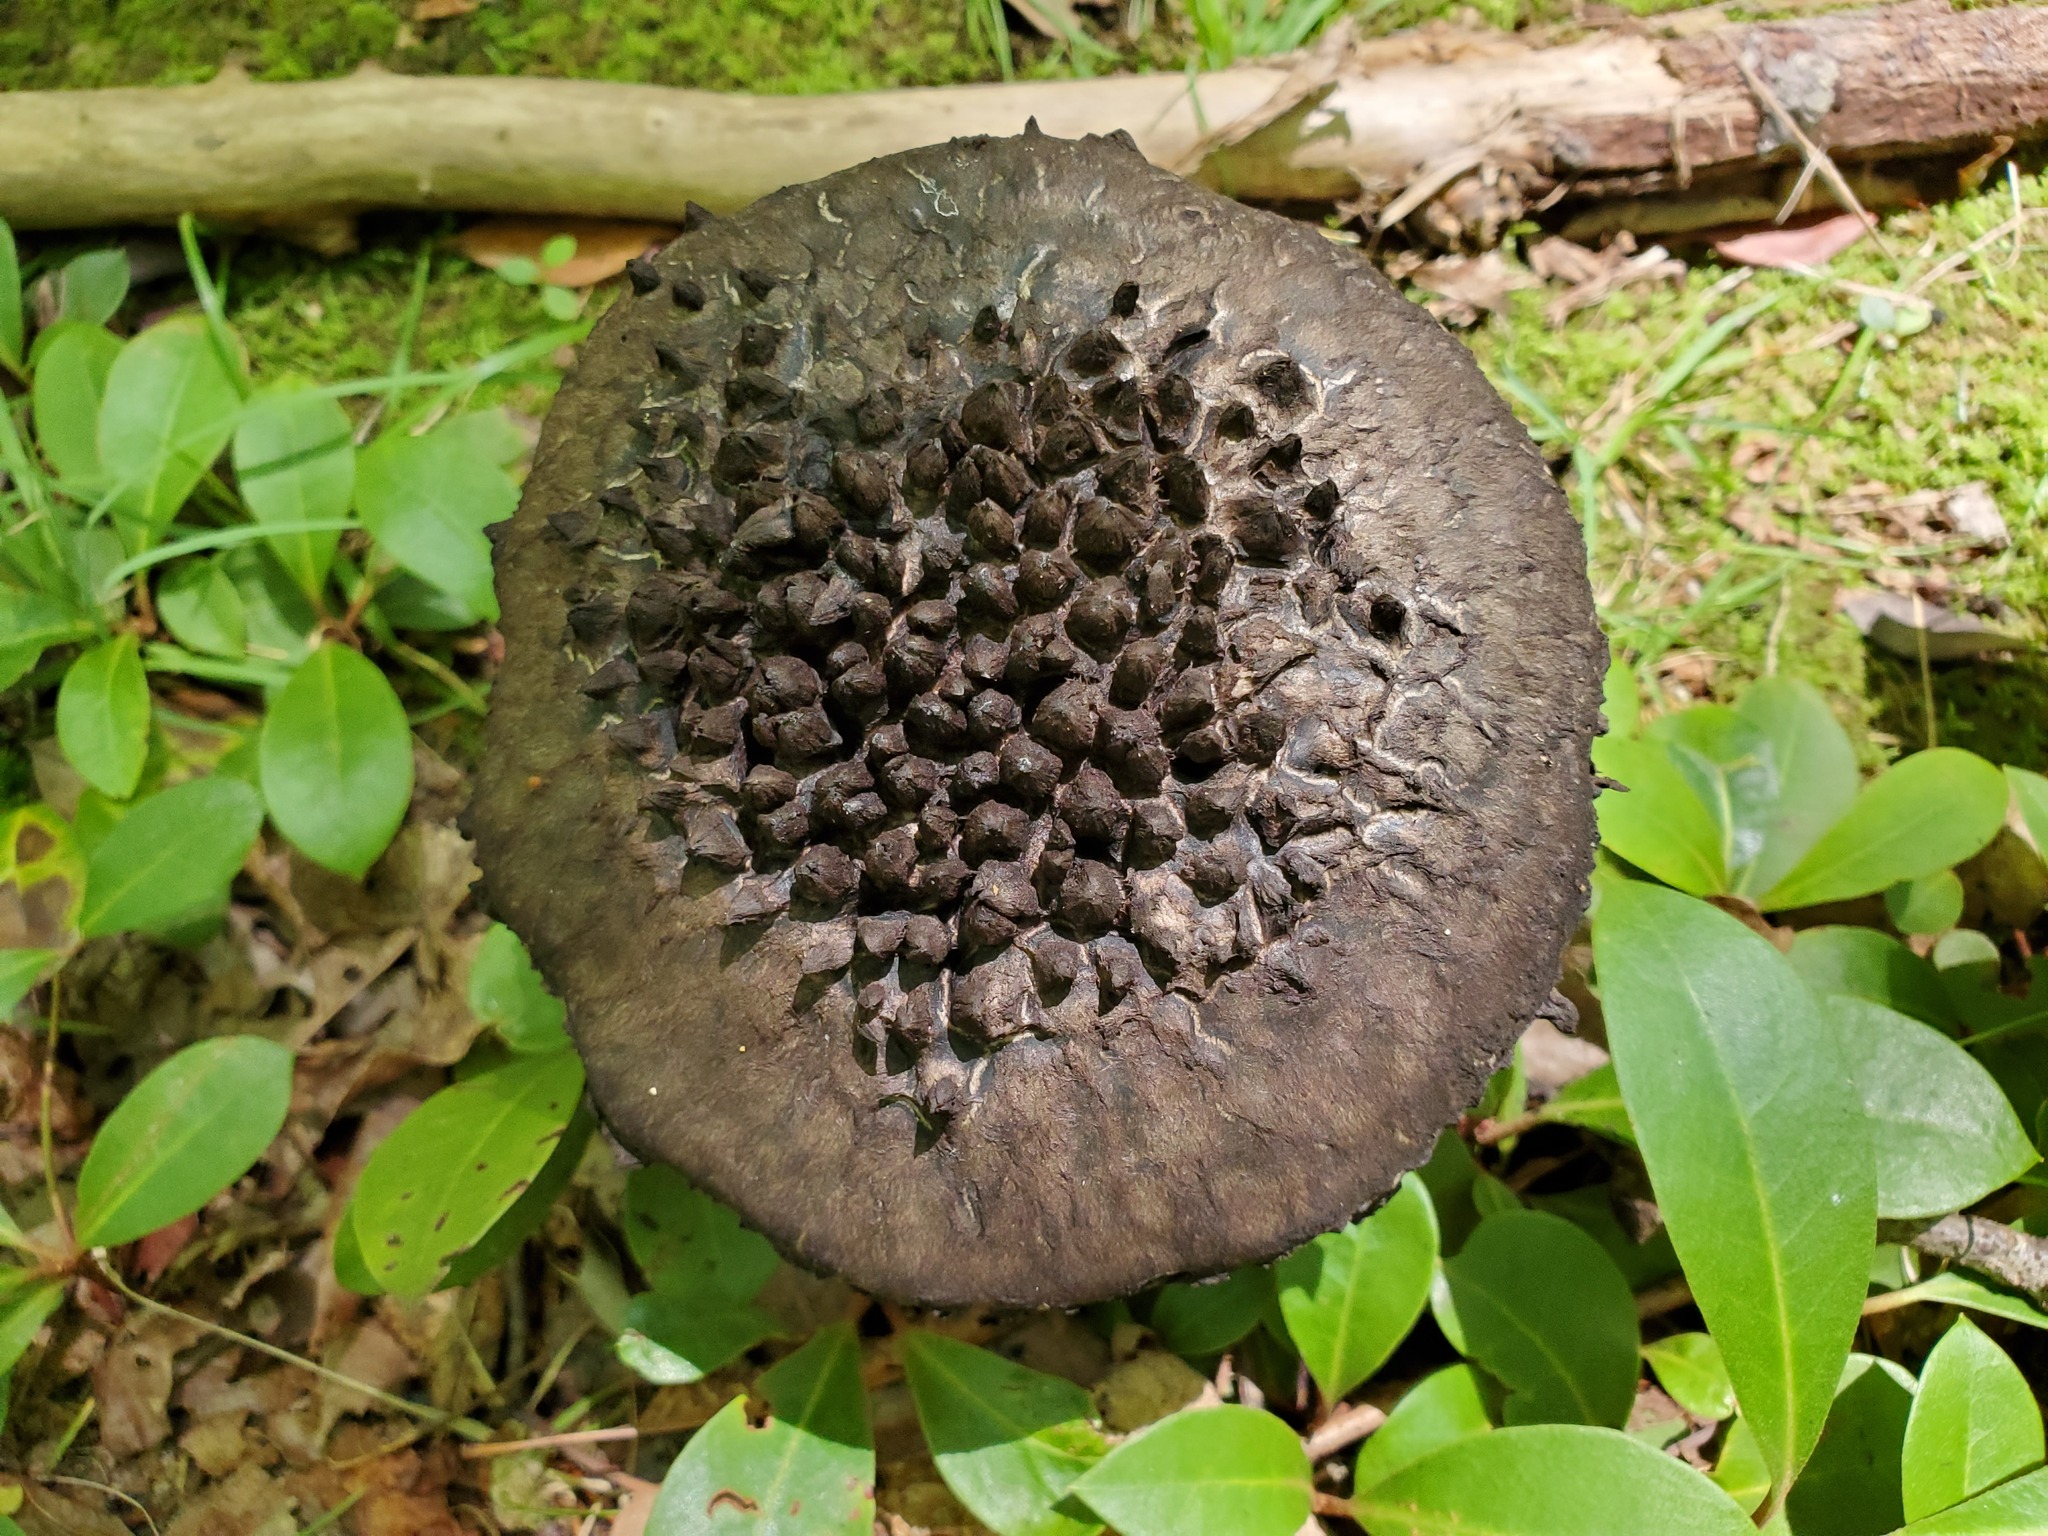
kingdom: Fungi
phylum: Basidiomycota
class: Agaricomycetes
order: Boletales
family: Boletaceae
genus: Strobilomyces
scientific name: Strobilomyces strobilaceus
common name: Old man of the woods
